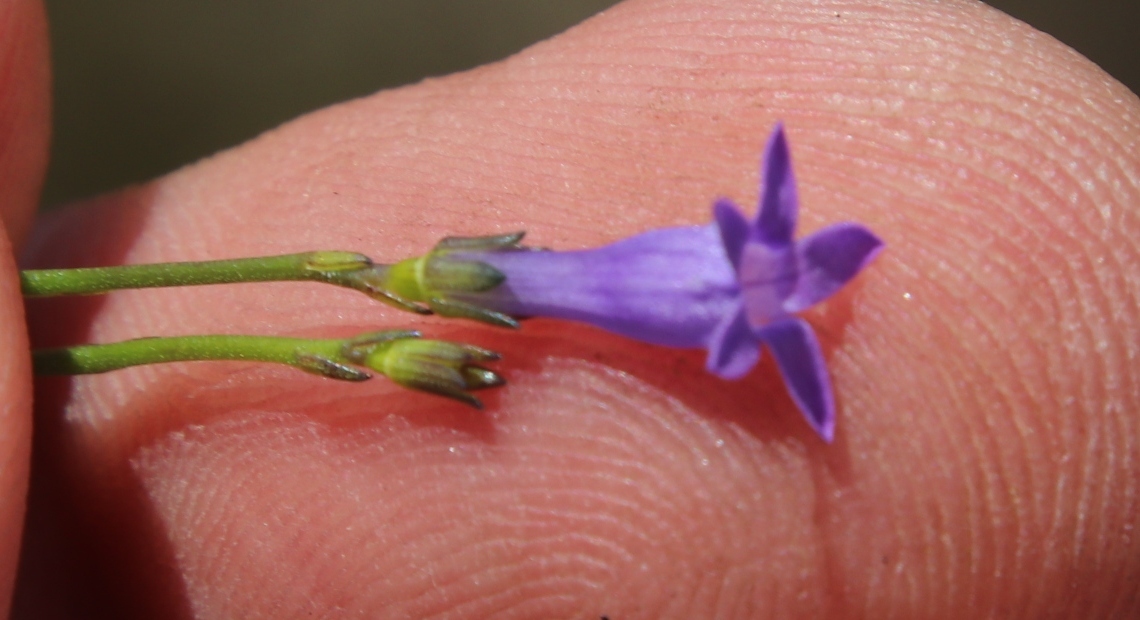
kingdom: Plantae
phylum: Tracheophyta
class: Magnoliopsida
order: Asterales
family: Campanulaceae
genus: Siphocodon
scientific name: Siphocodon spartioides
